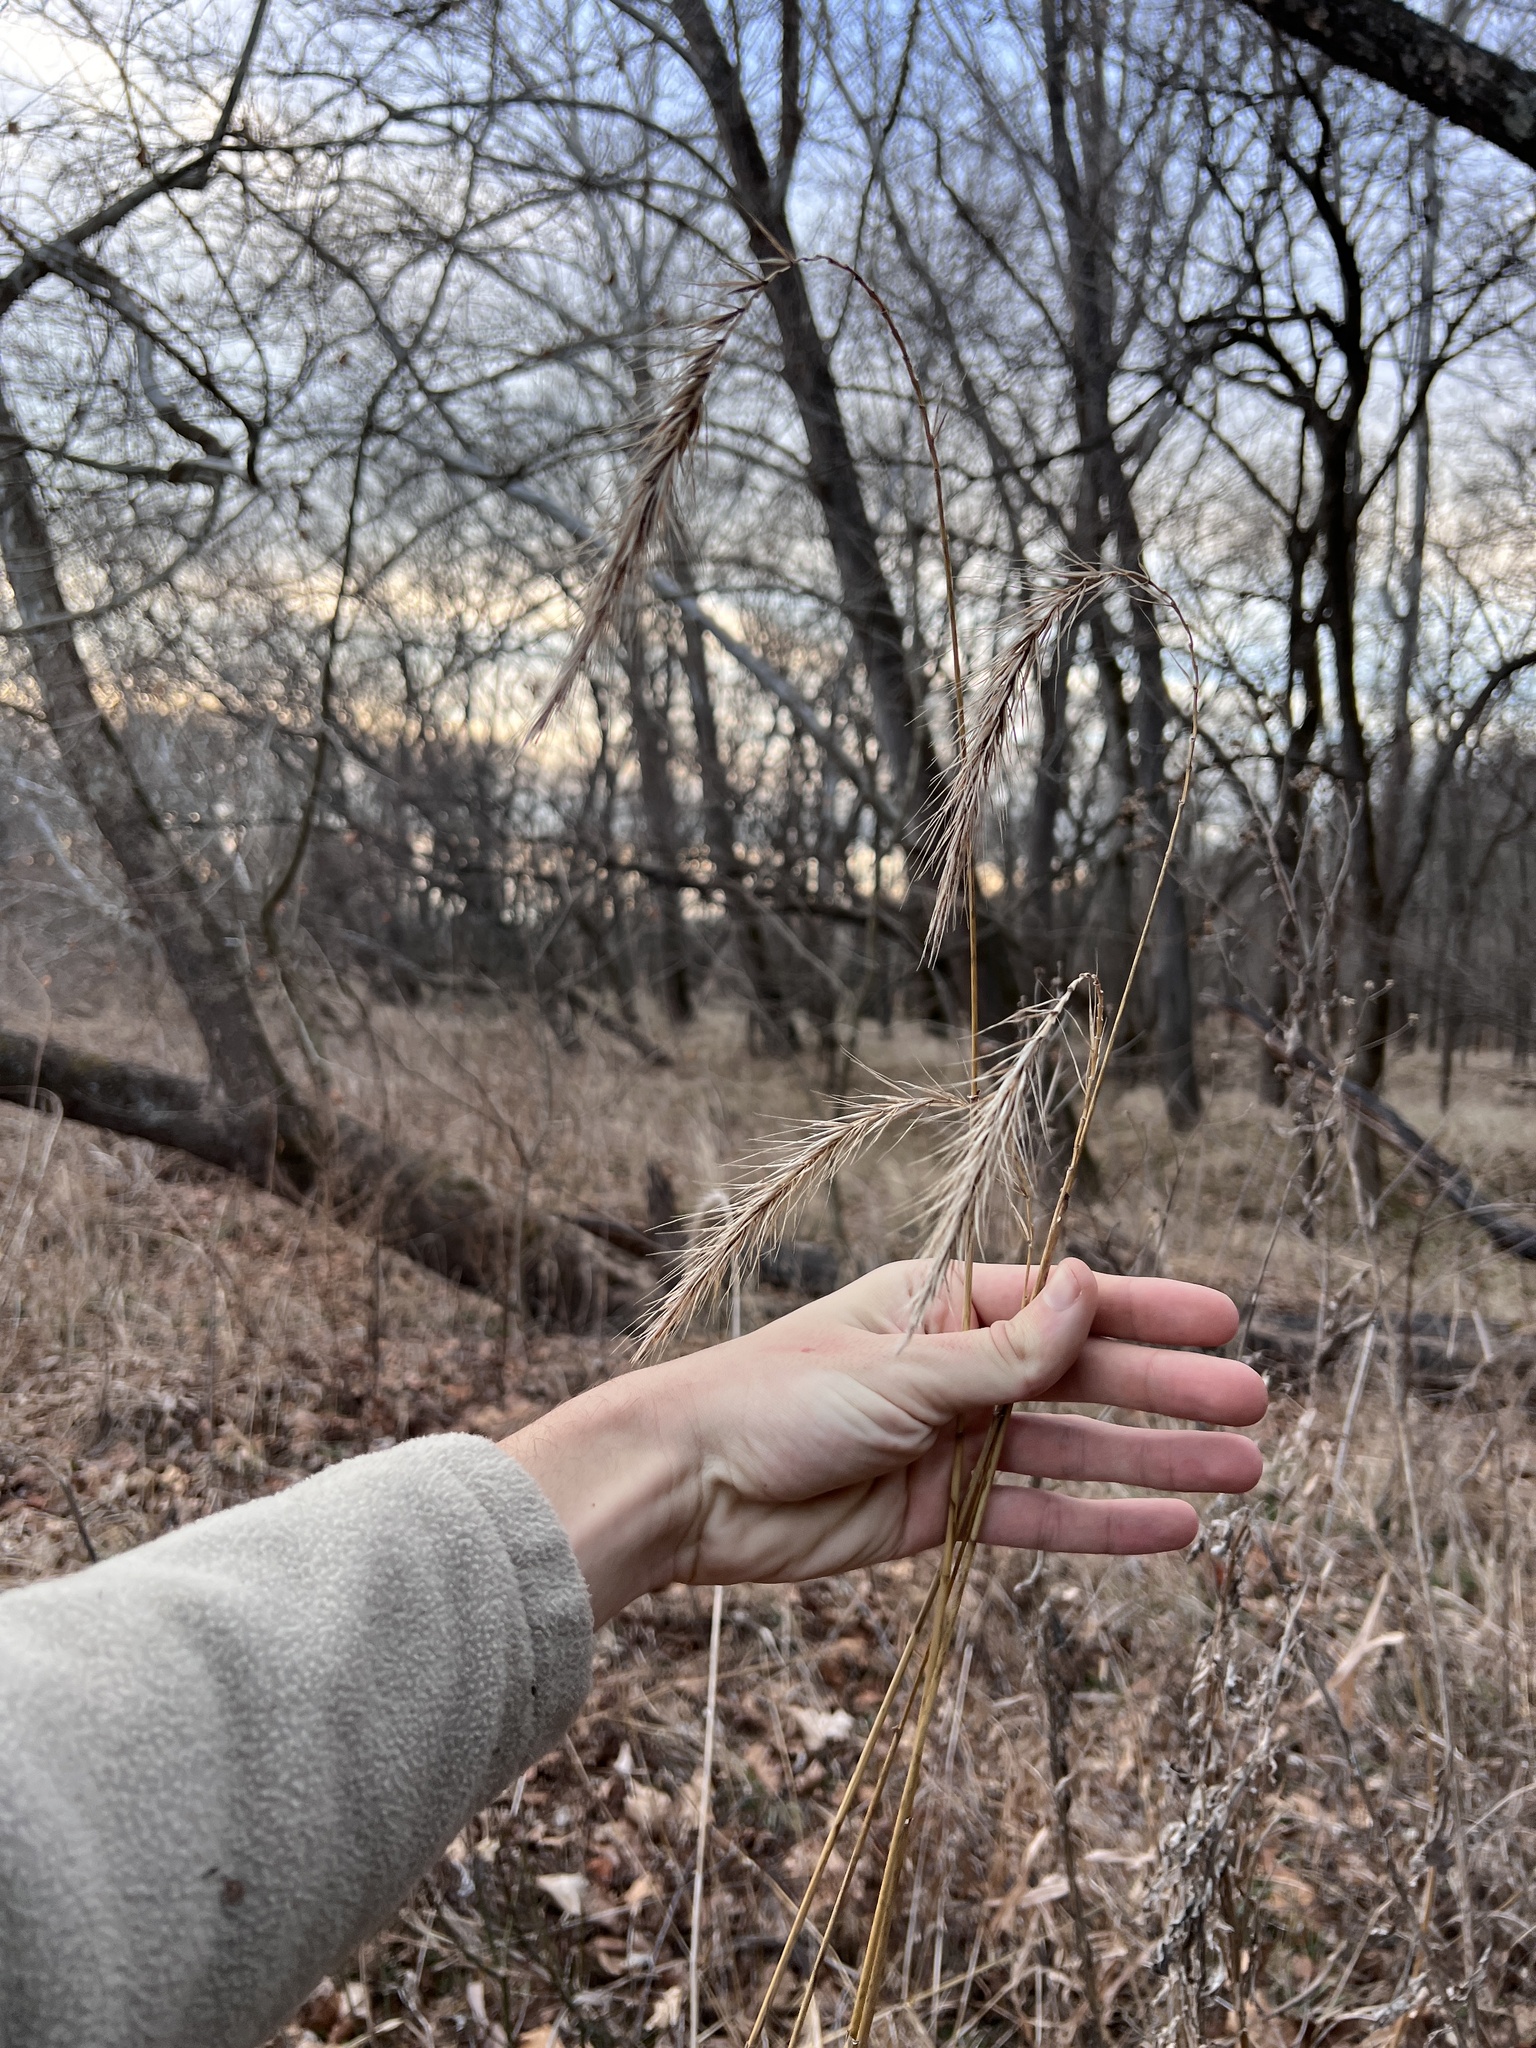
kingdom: Plantae
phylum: Tracheophyta
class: Liliopsida
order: Poales
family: Poaceae
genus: Elymus
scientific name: Elymus riparius
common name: Eastern riverbank wild rye
